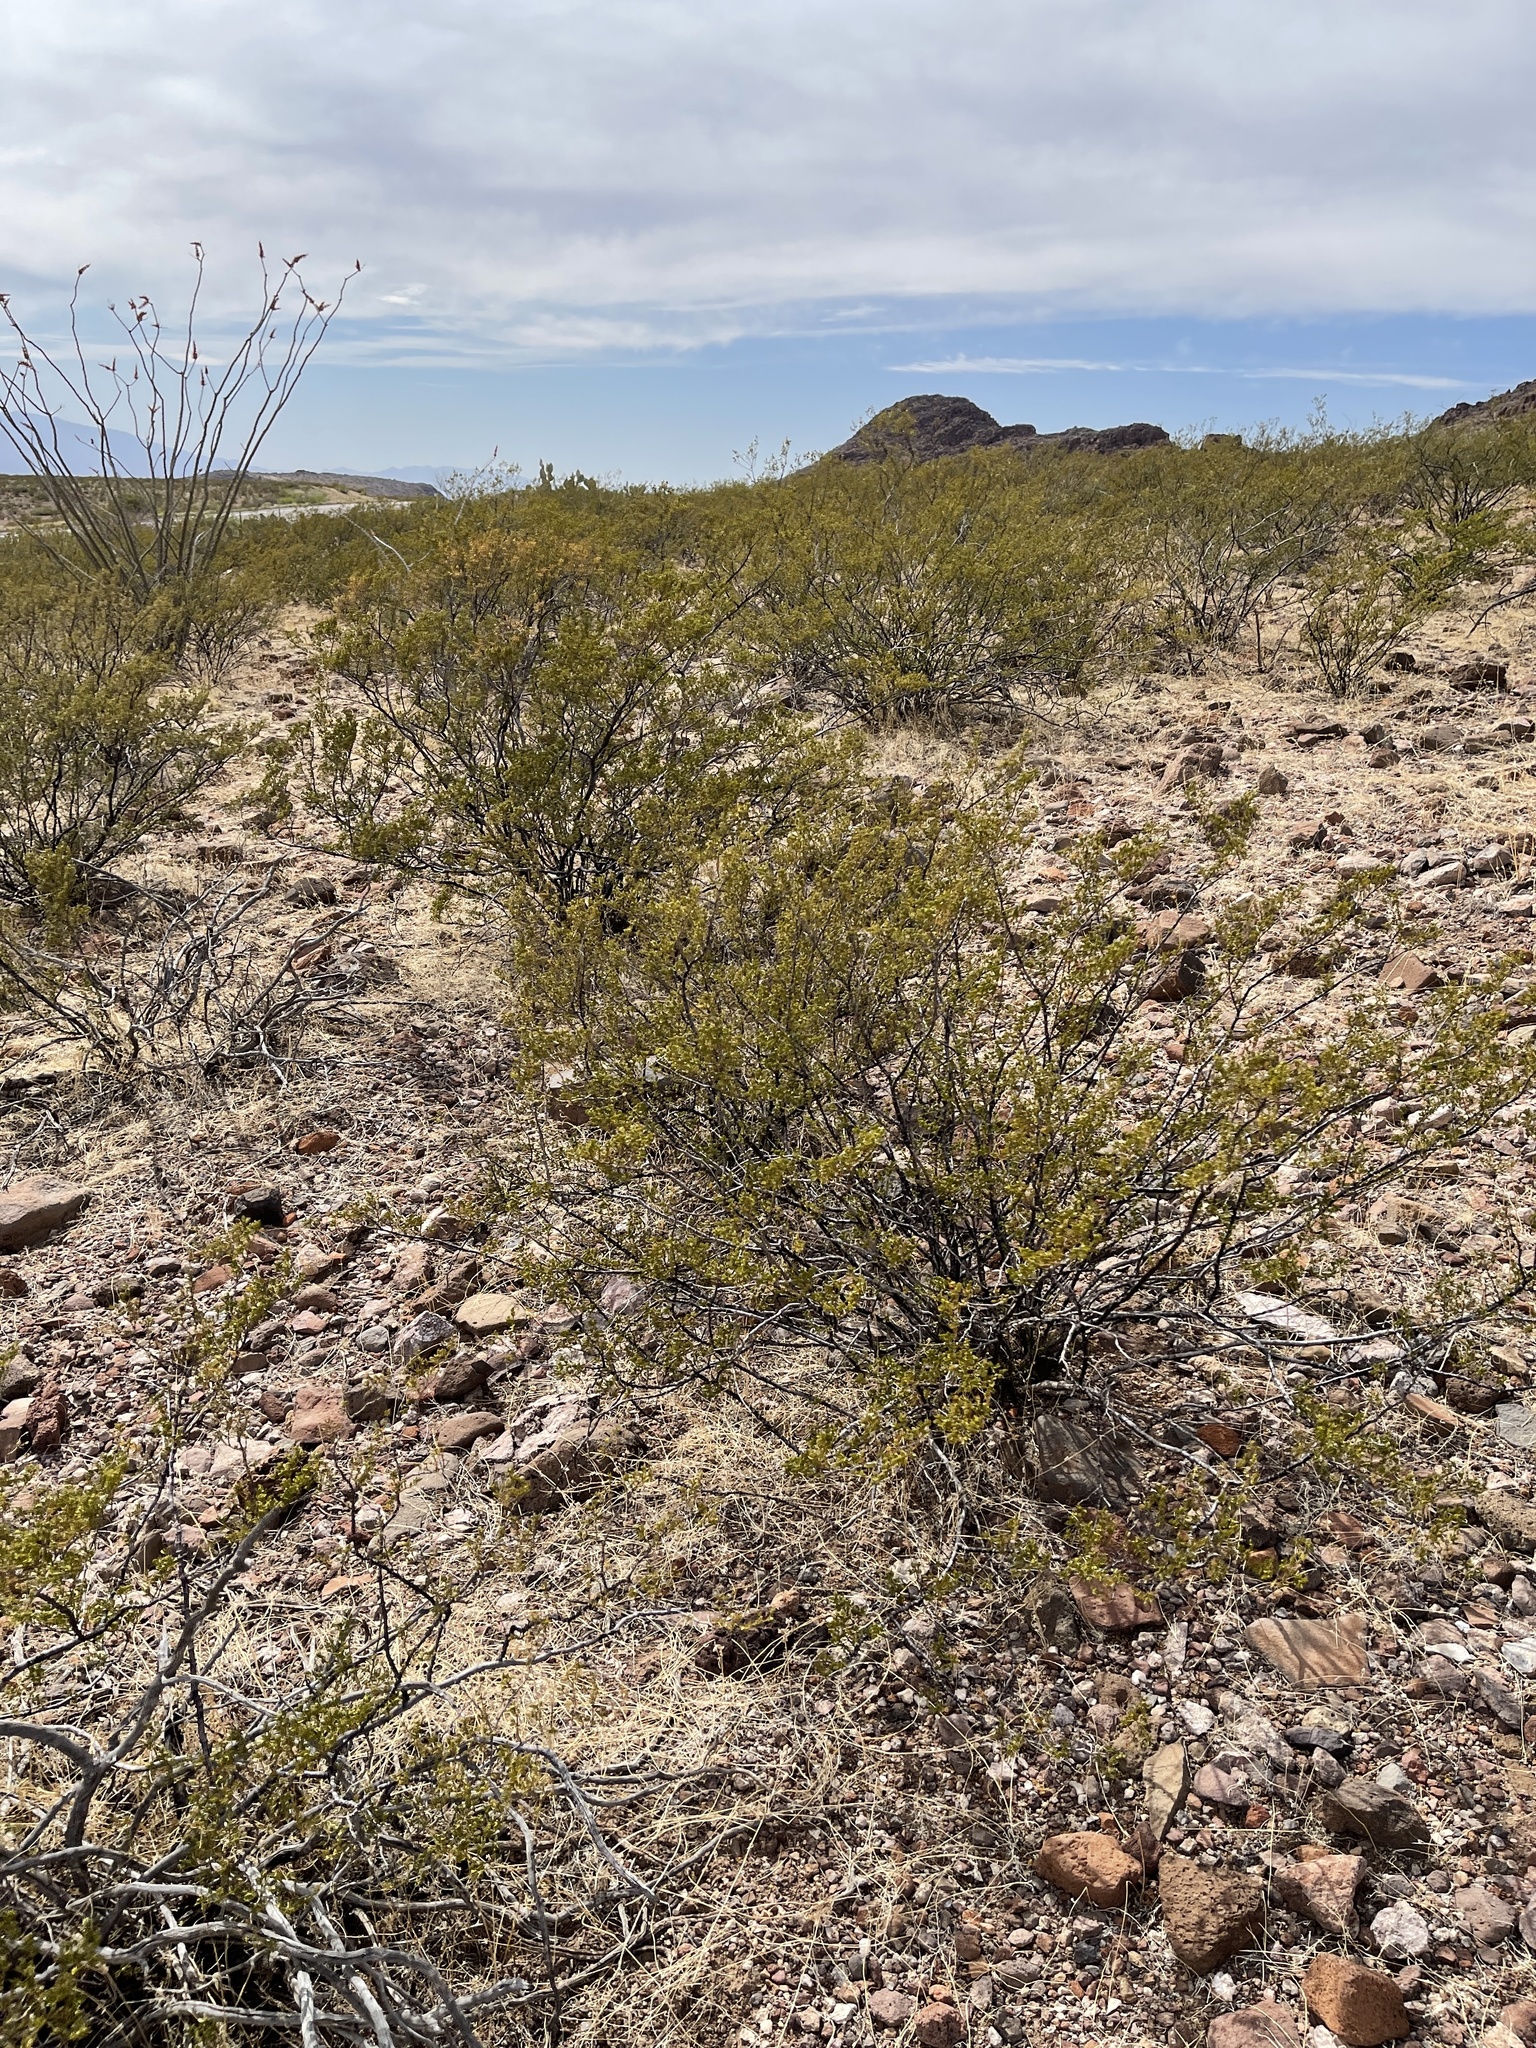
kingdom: Plantae
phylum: Tracheophyta
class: Magnoliopsida
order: Zygophyllales
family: Zygophyllaceae
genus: Larrea
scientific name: Larrea tridentata
